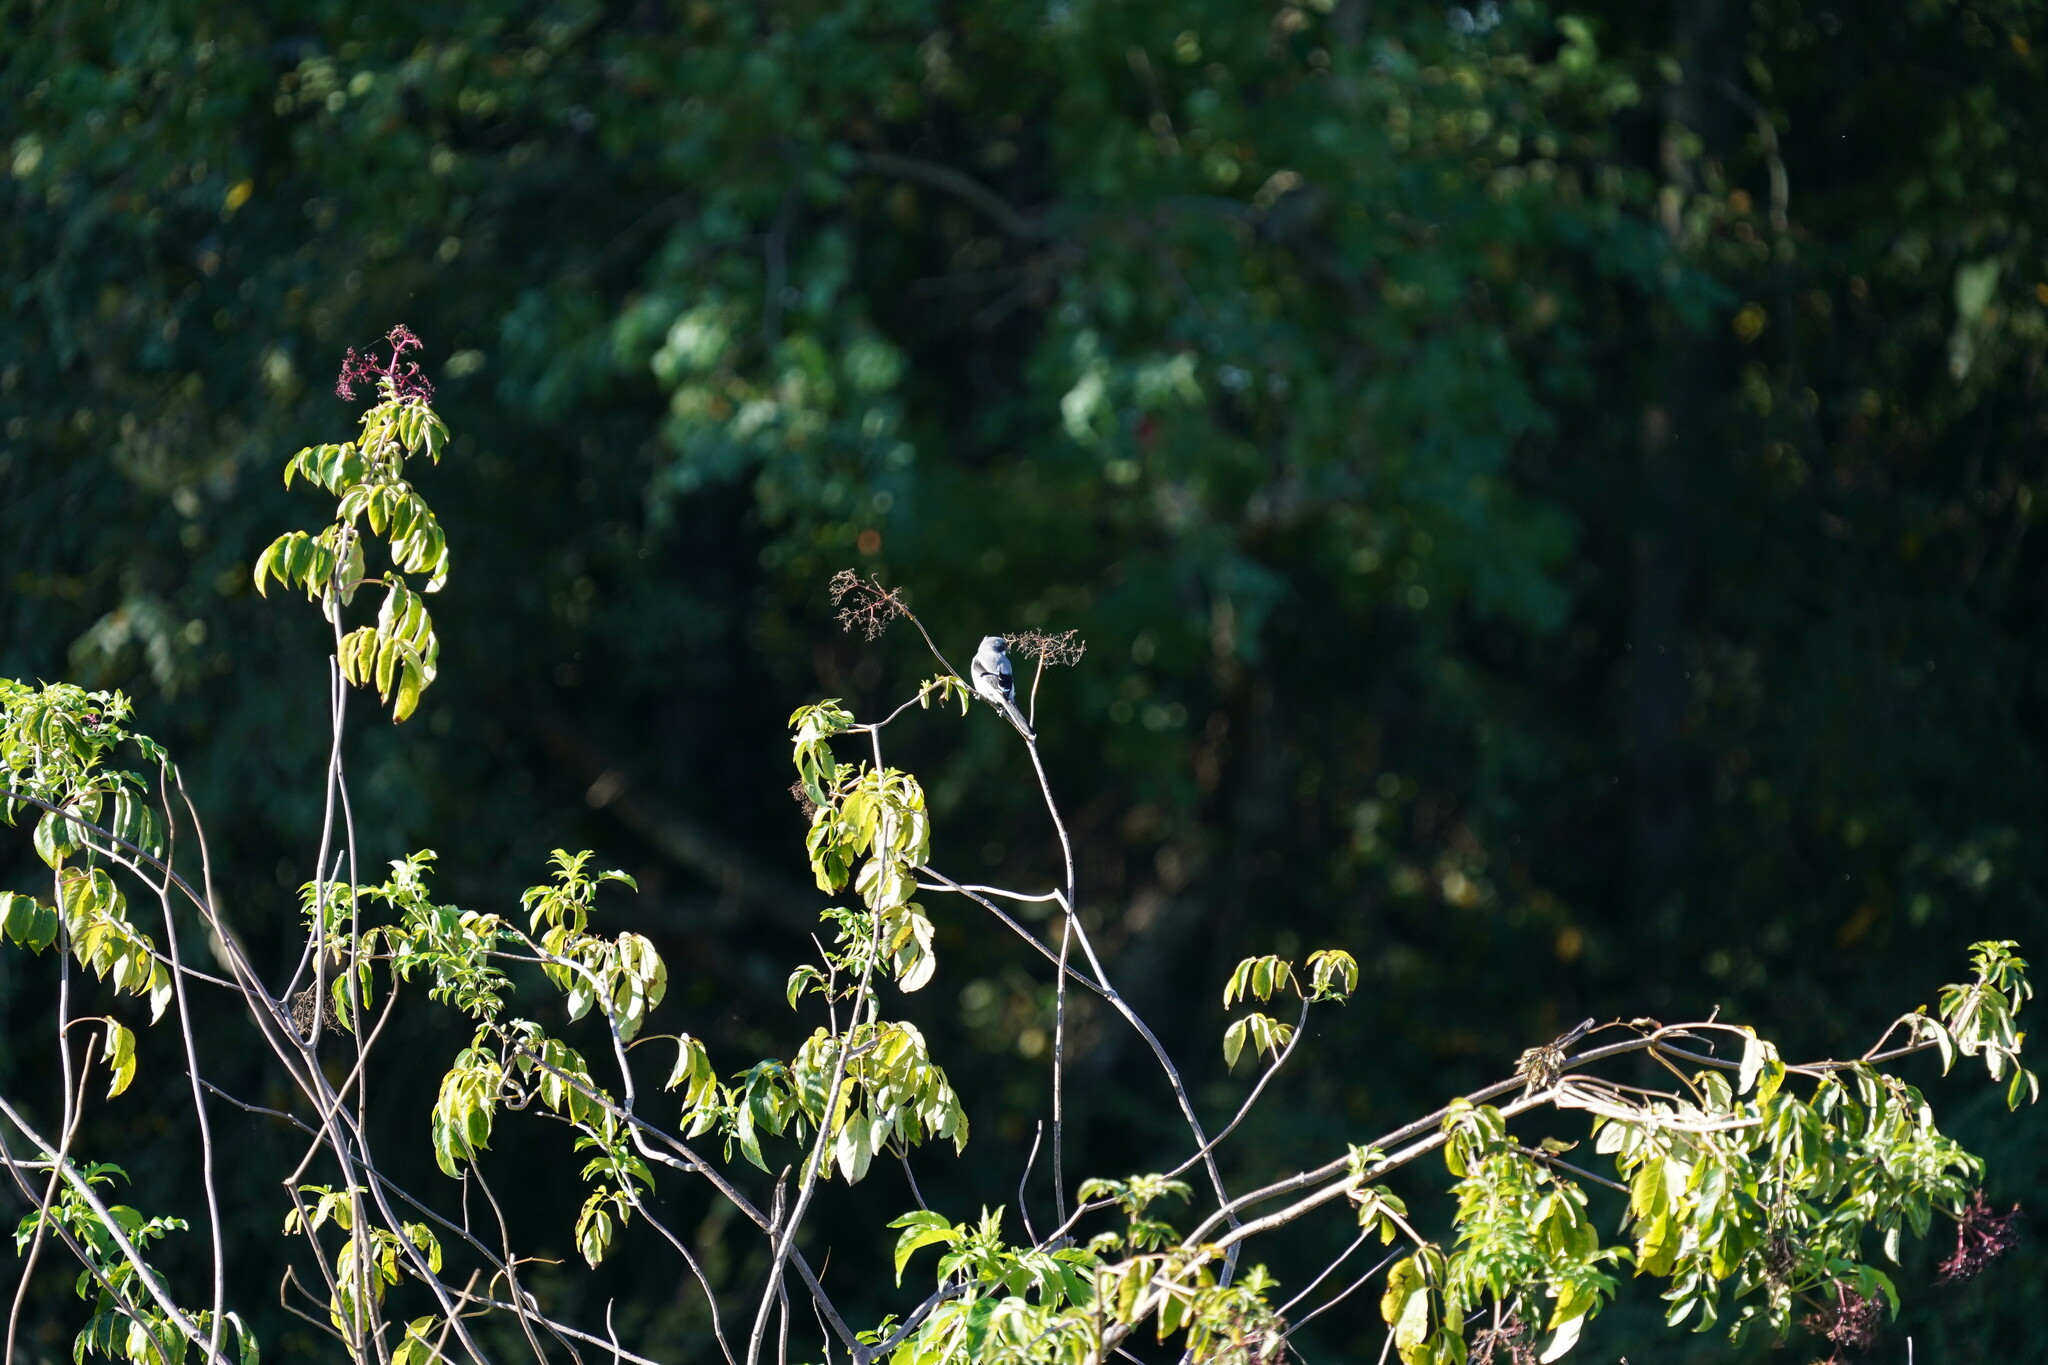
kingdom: Animalia
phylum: Chordata
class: Aves
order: Passeriformes
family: Laniidae
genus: Lanius
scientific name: Lanius ludovicianus
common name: Loggerhead shrike
